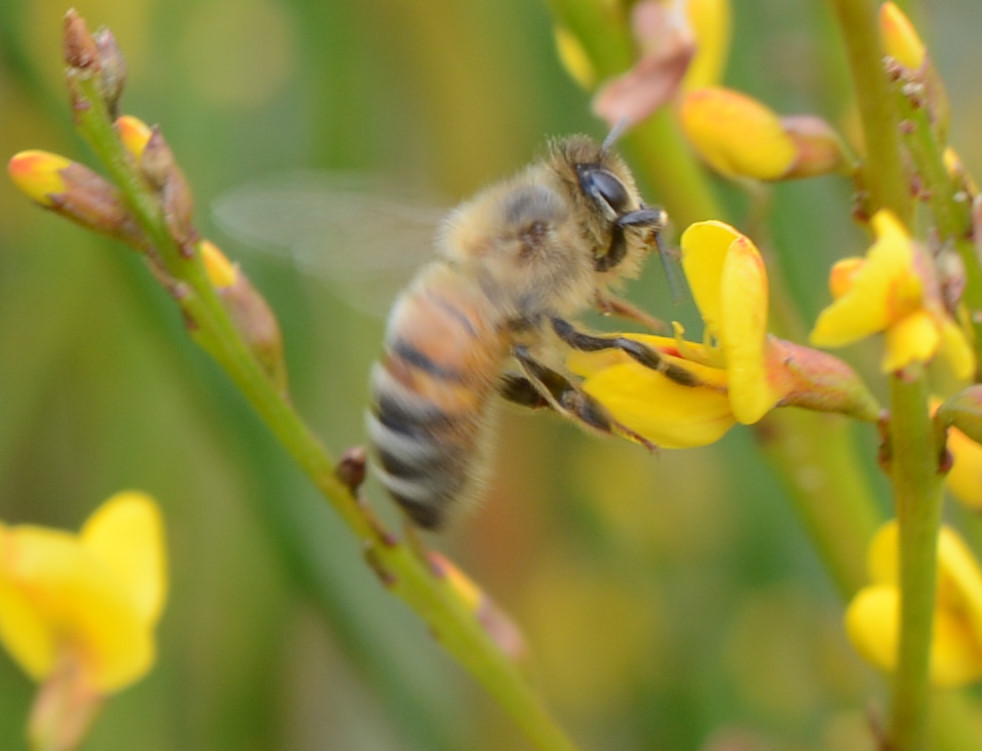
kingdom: Animalia
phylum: Arthropoda
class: Insecta
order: Hymenoptera
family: Apidae
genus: Apis
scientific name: Apis mellifera
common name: Honey bee
